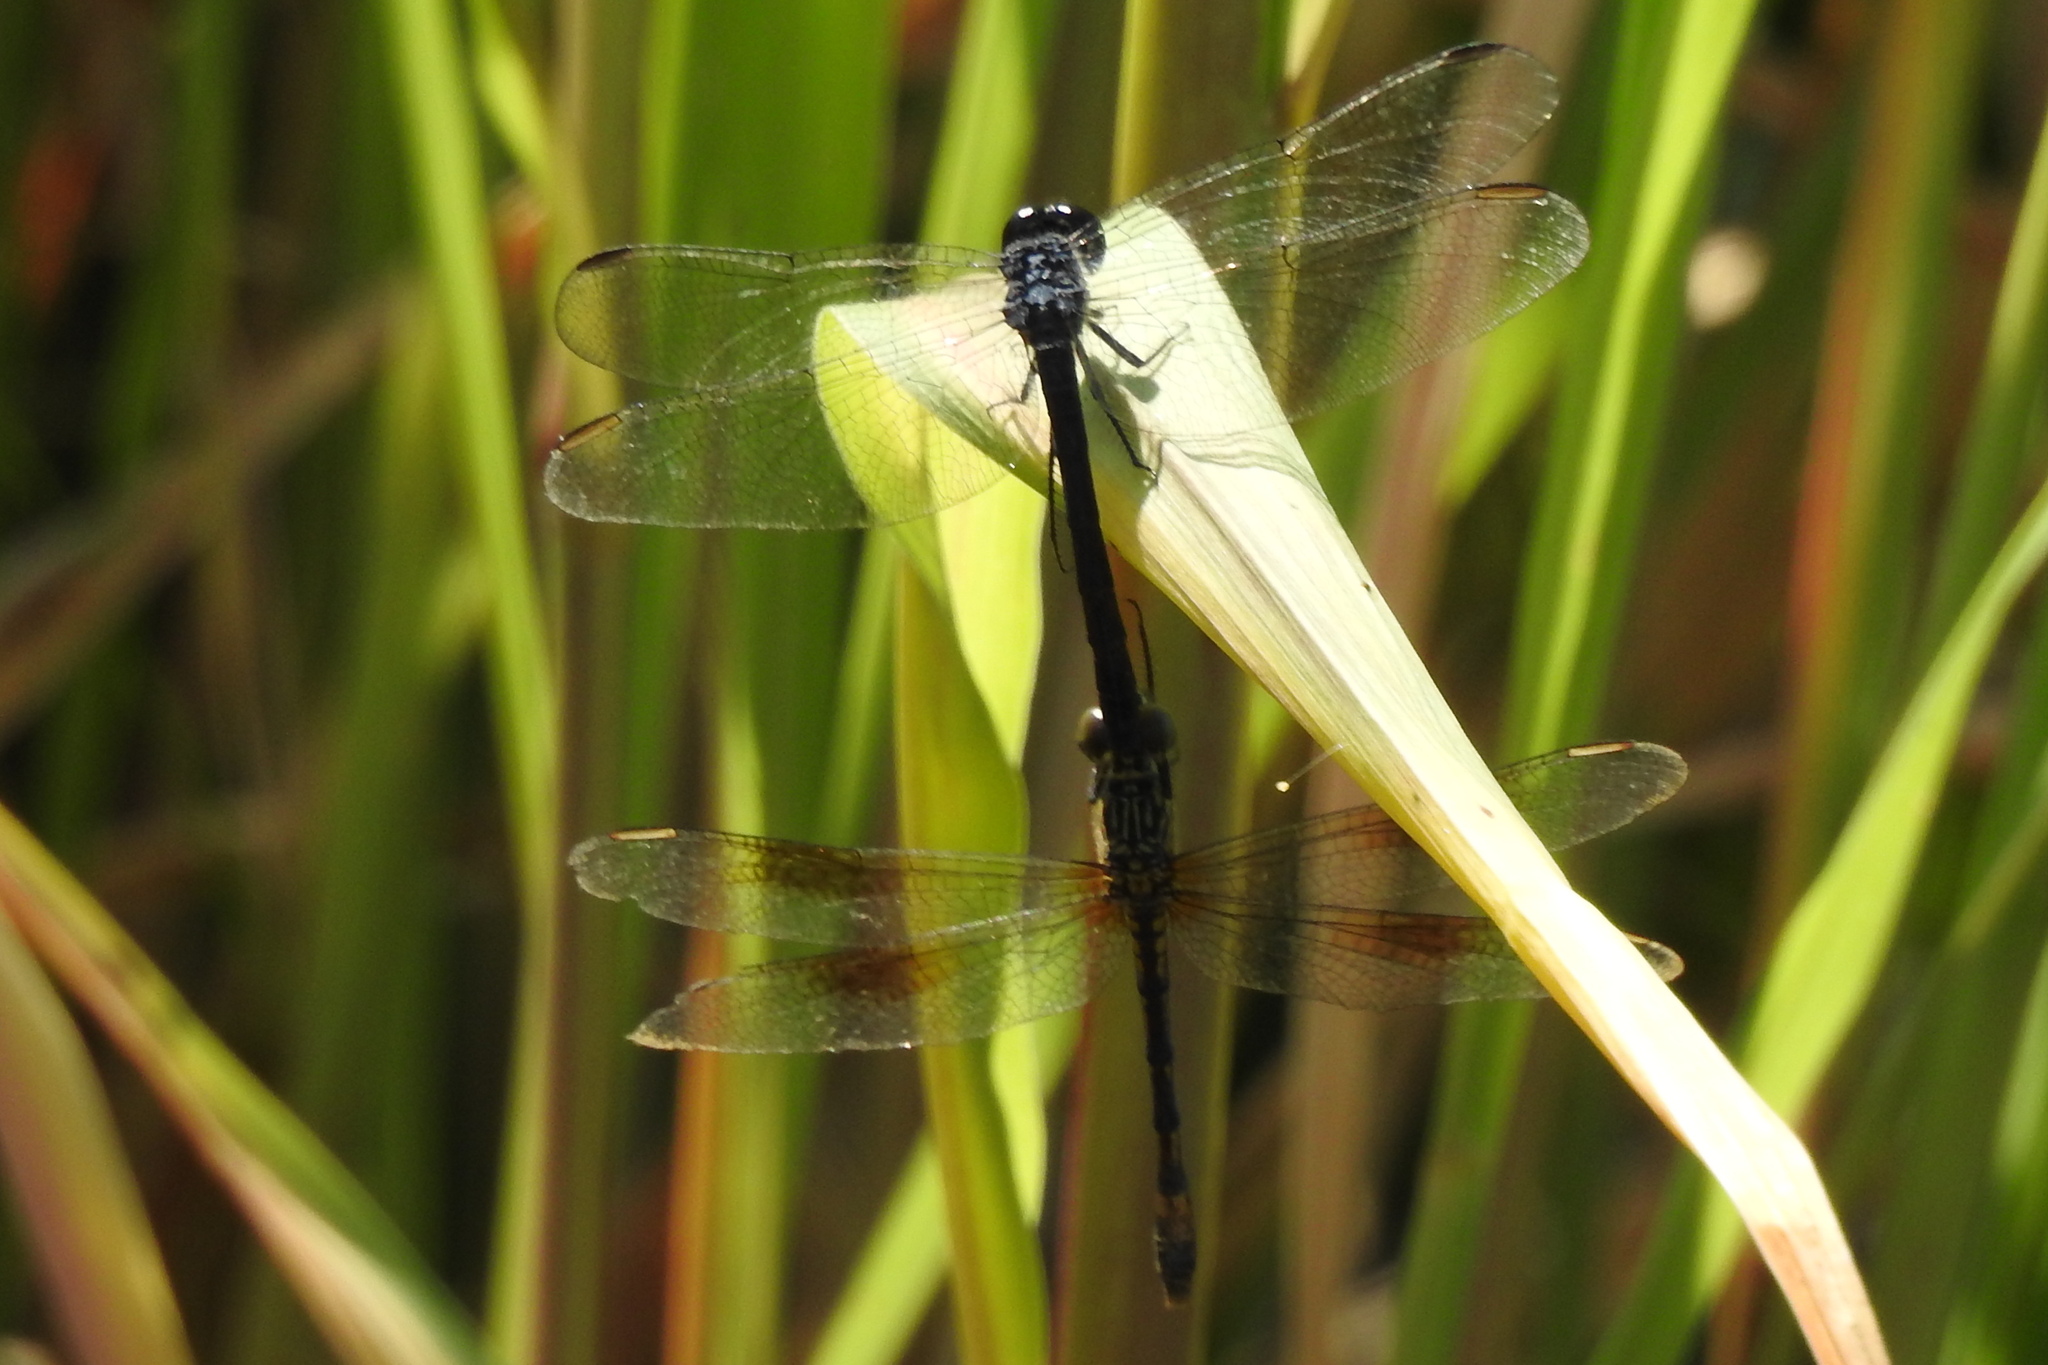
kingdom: Animalia
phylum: Arthropoda
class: Insecta
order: Odonata
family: Libellulidae
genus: Erythrodiplax
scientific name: Erythrodiplax berenice
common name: Seaside dragonlet
